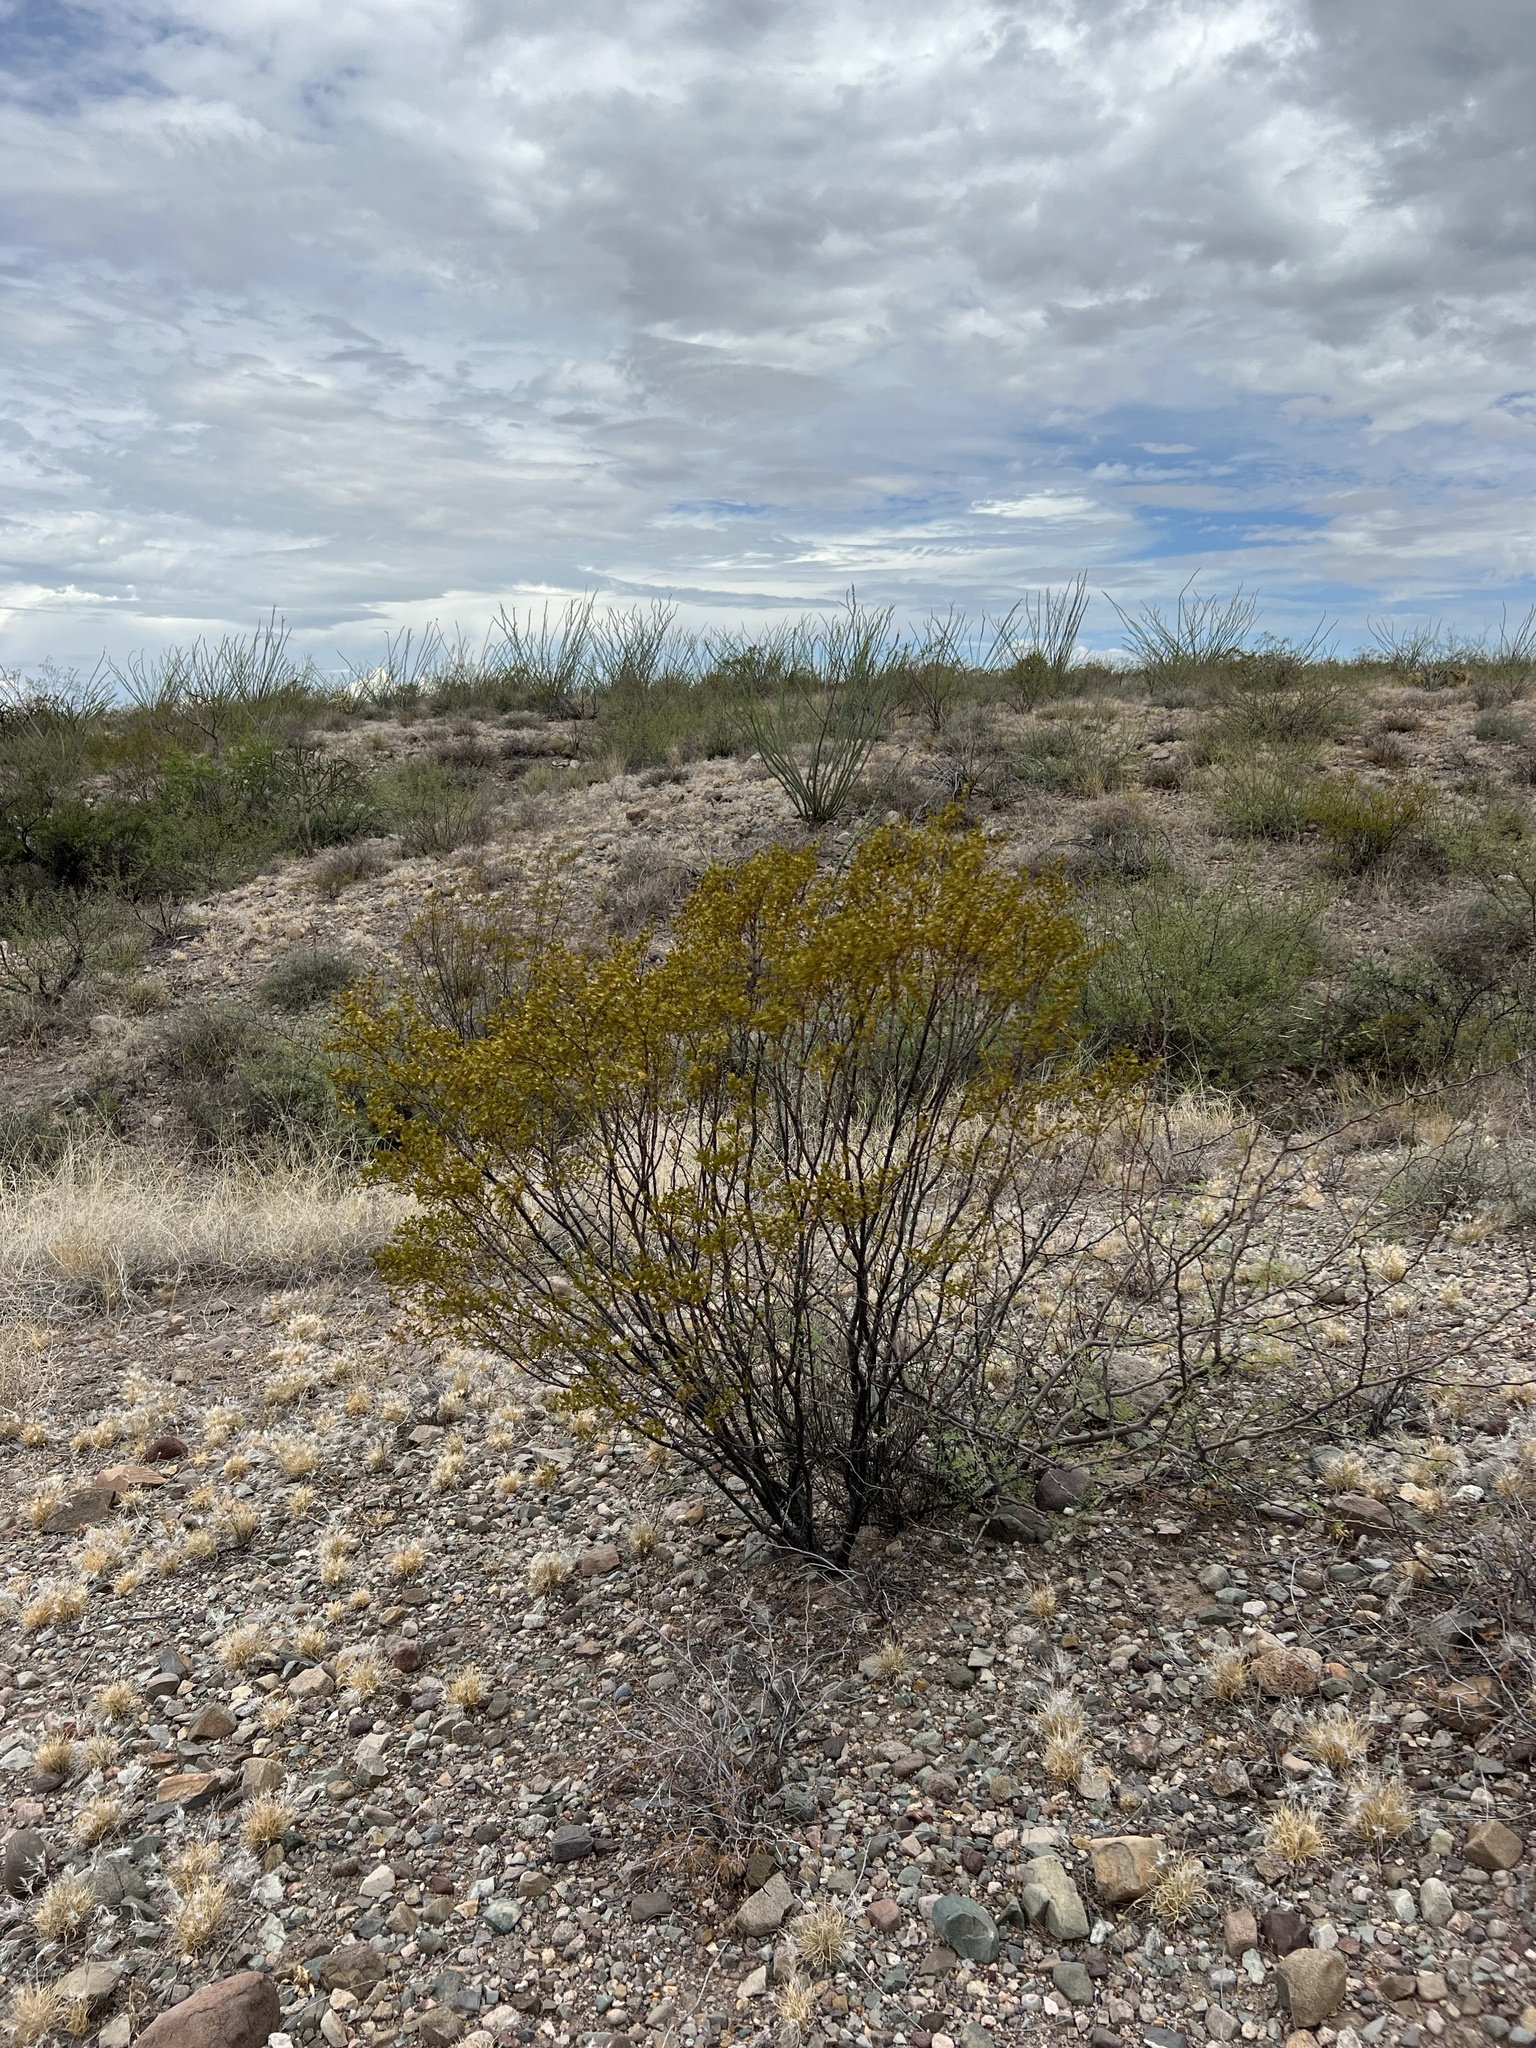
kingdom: Plantae
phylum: Tracheophyta
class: Magnoliopsida
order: Zygophyllales
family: Zygophyllaceae
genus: Larrea
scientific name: Larrea tridentata
